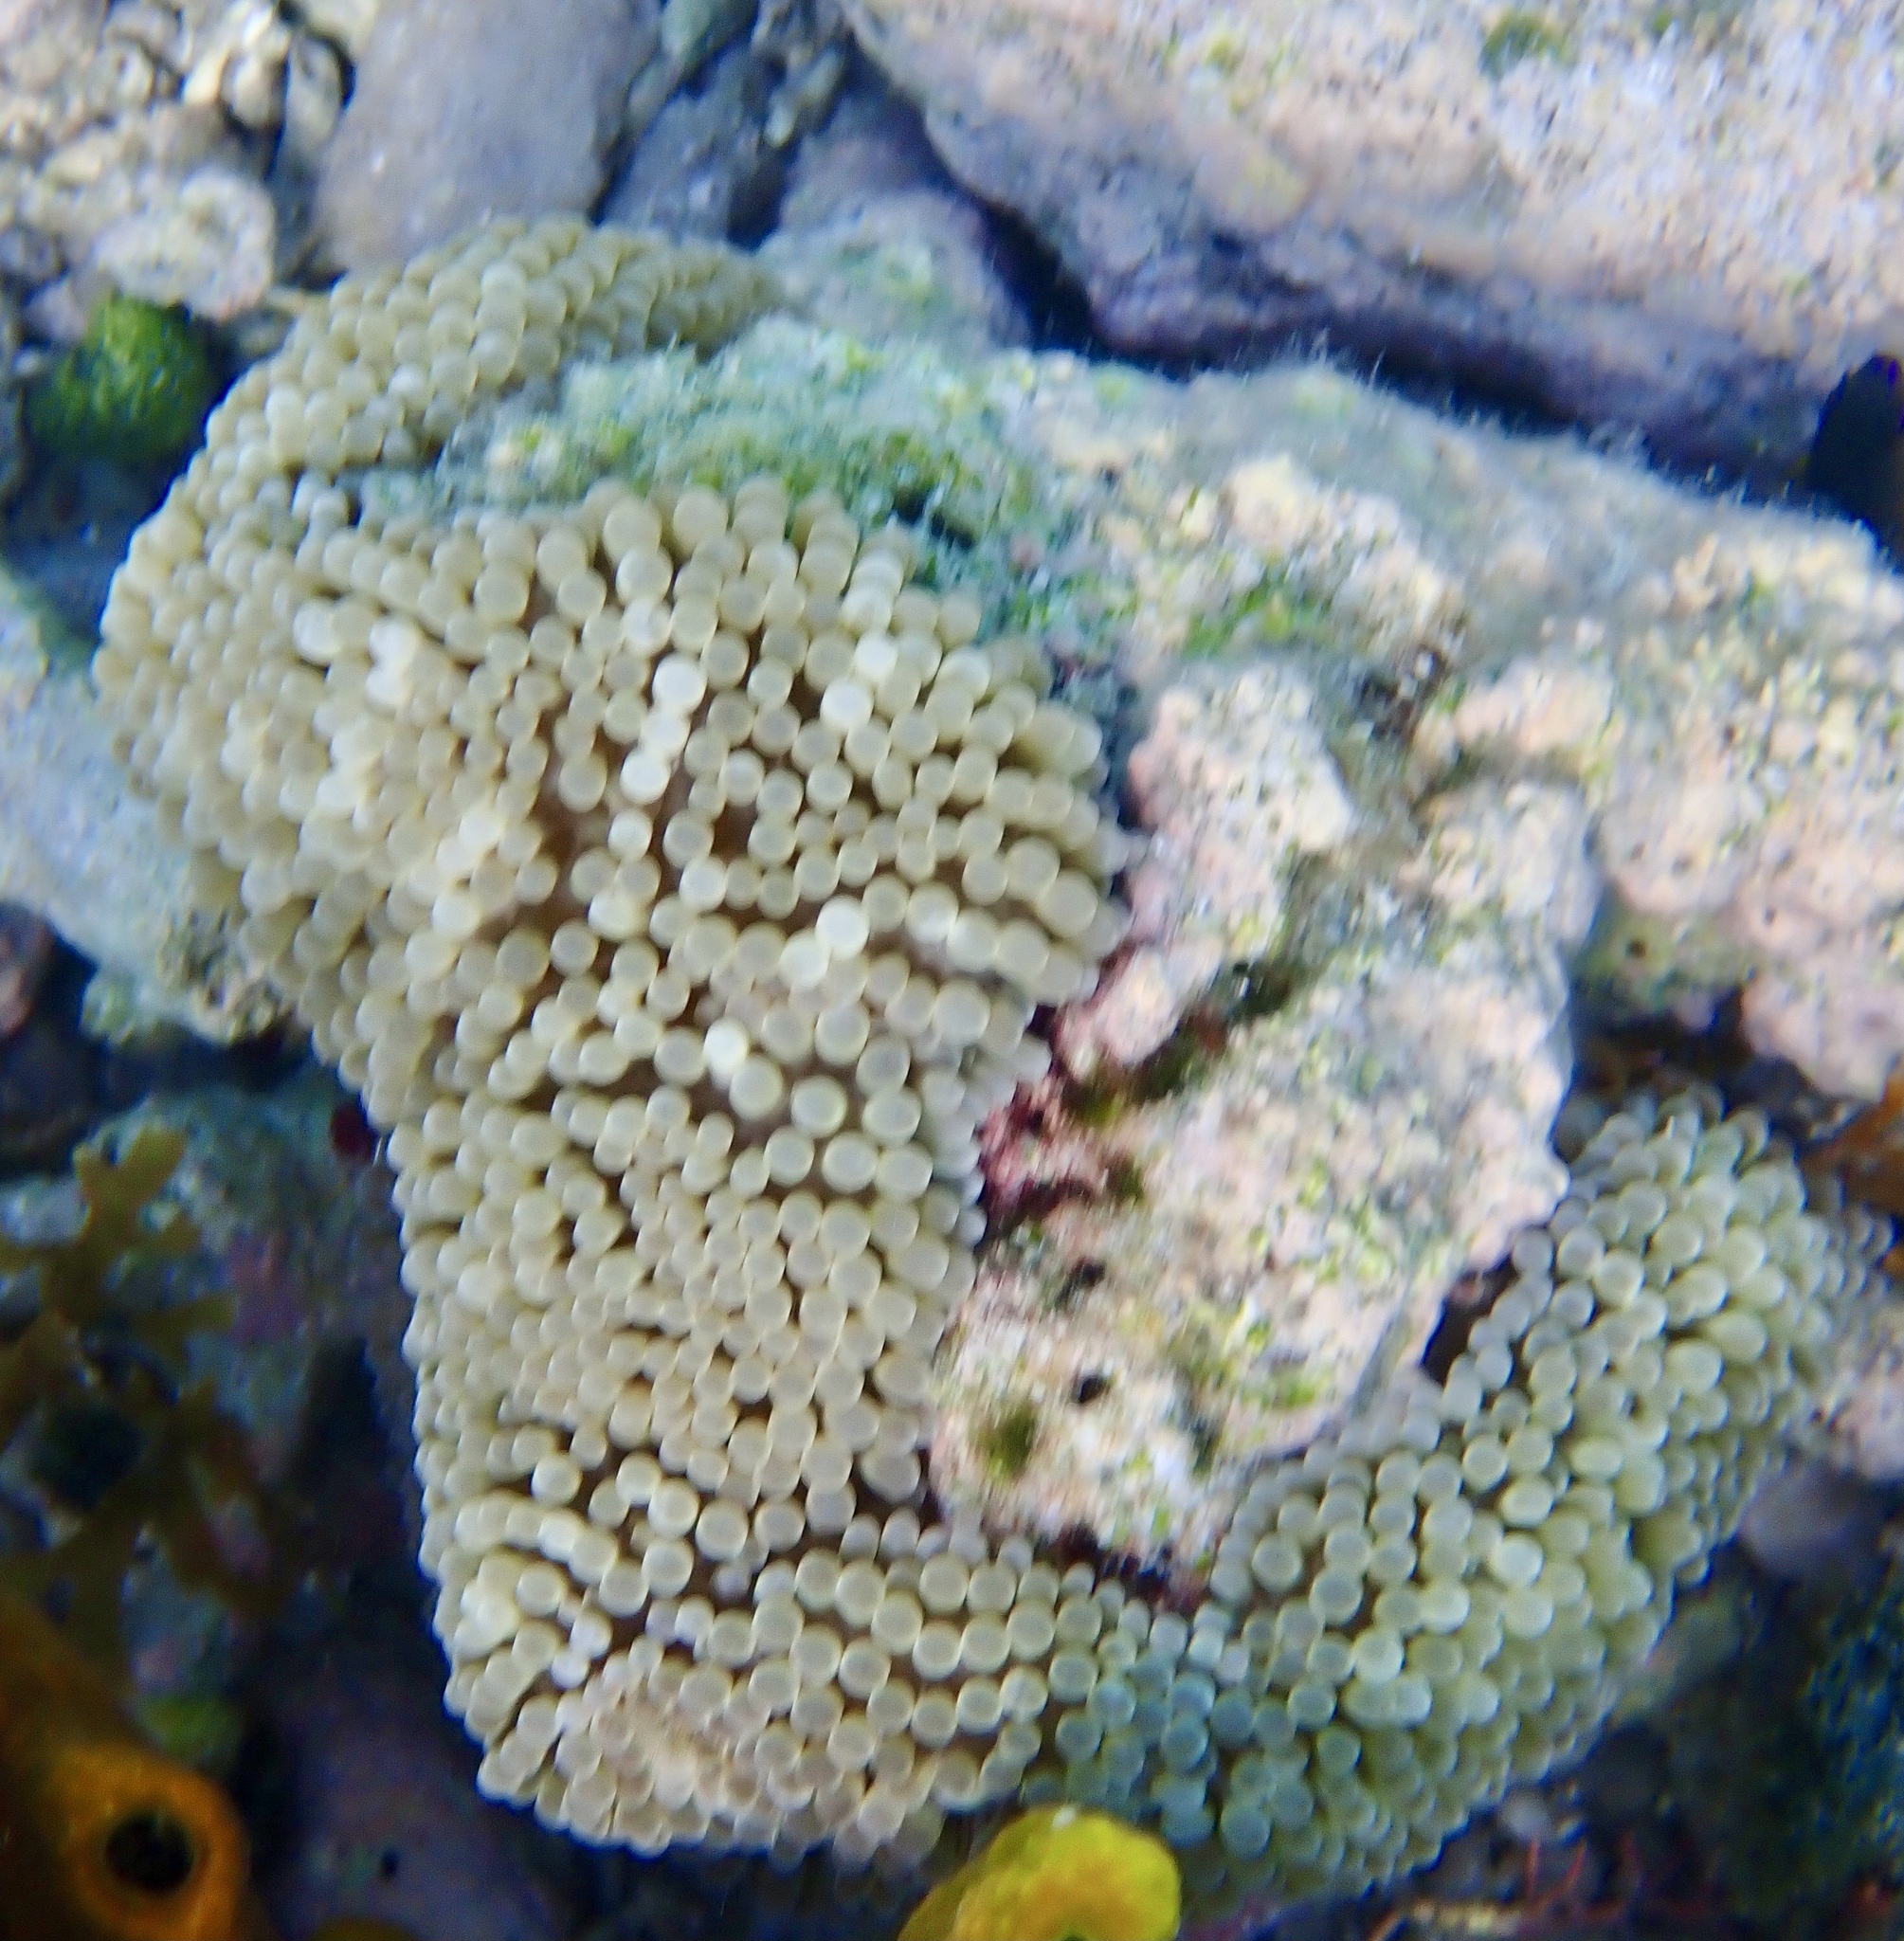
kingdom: Animalia
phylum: Cnidaria
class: Anthozoa
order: Actiniaria
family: Stichodactylidae
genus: Stichodactyla
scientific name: Stichodactyla helianthus
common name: Sun anemone
